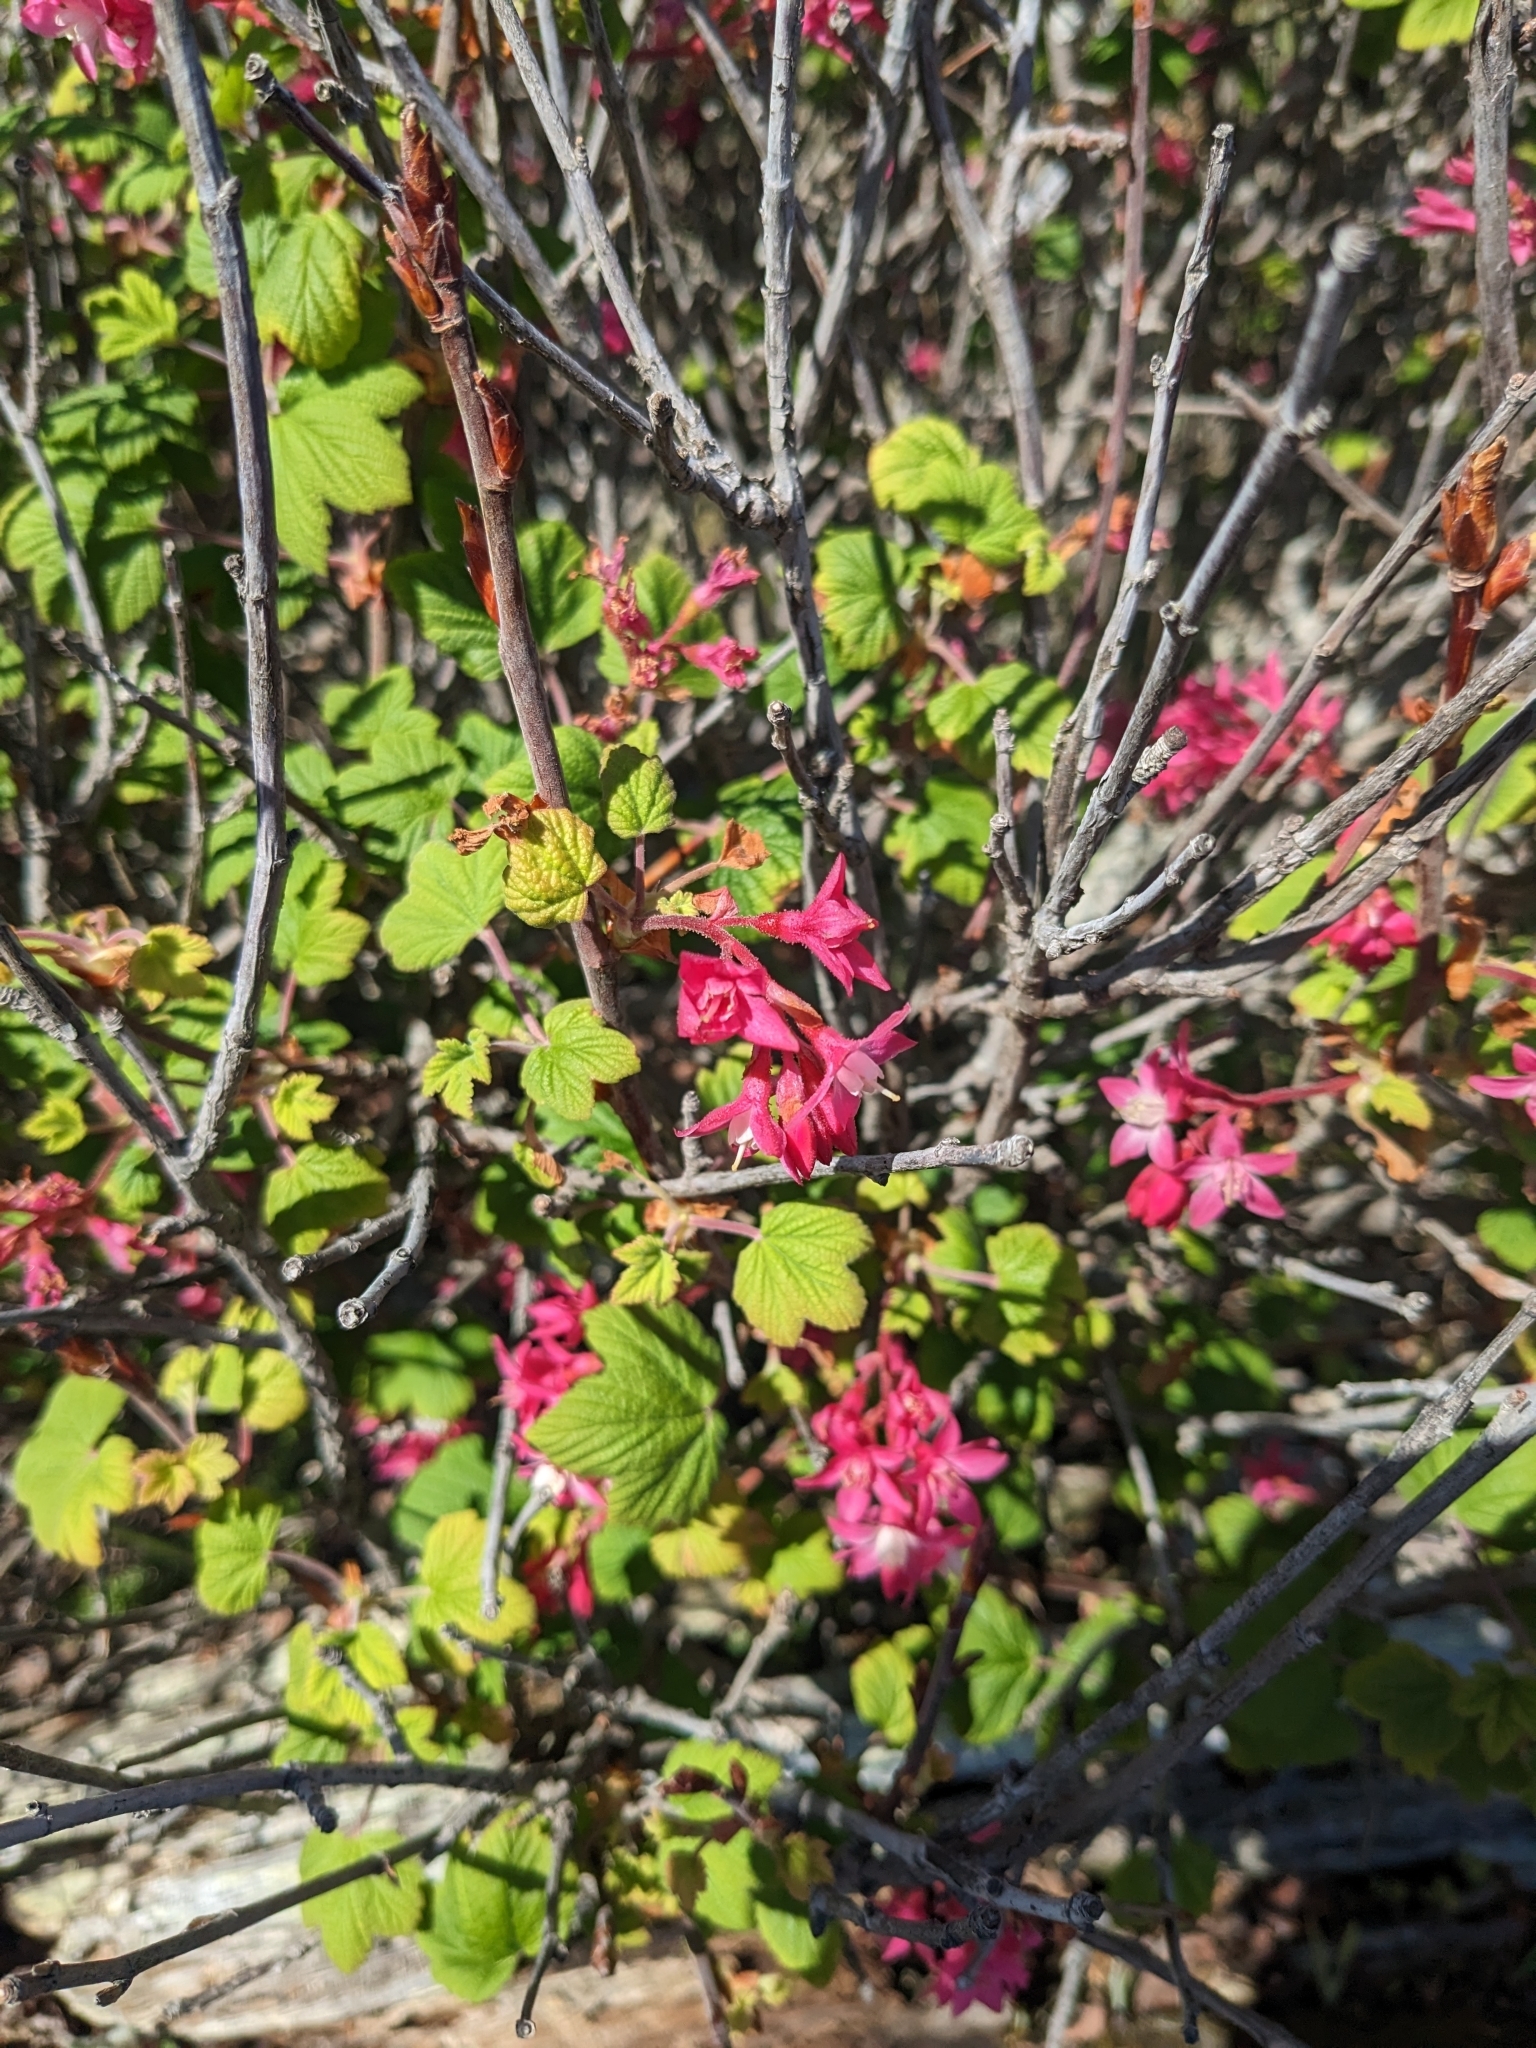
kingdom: Plantae
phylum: Tracheophyta
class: Magnoliopsida
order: Saxifragales
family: Grossulariaceae
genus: Ribes
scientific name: Ribes sanguineum
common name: Flowering currant
